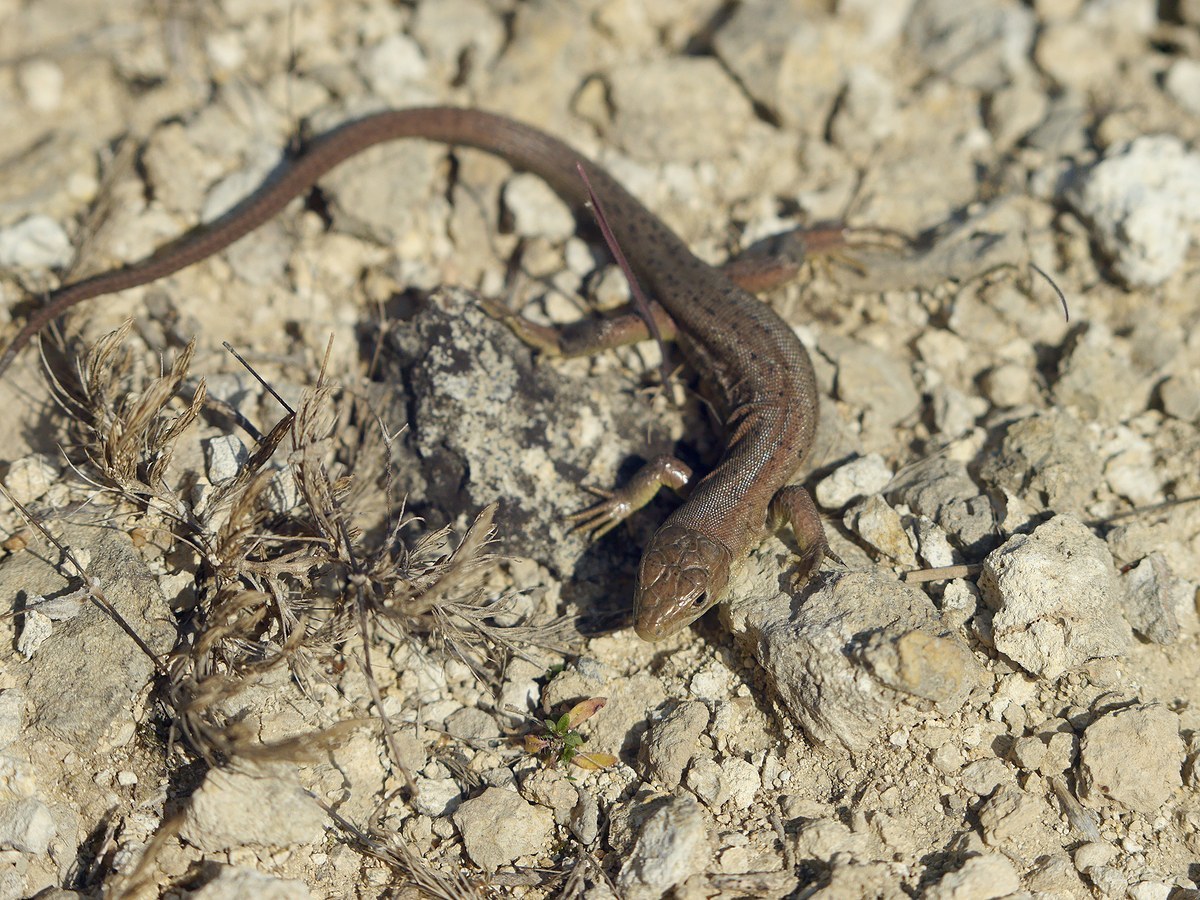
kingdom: Animalia
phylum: Chordata
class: Squamata
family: Lacertidae
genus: Lacerta
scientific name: Lacerta viridis
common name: European green lizard
